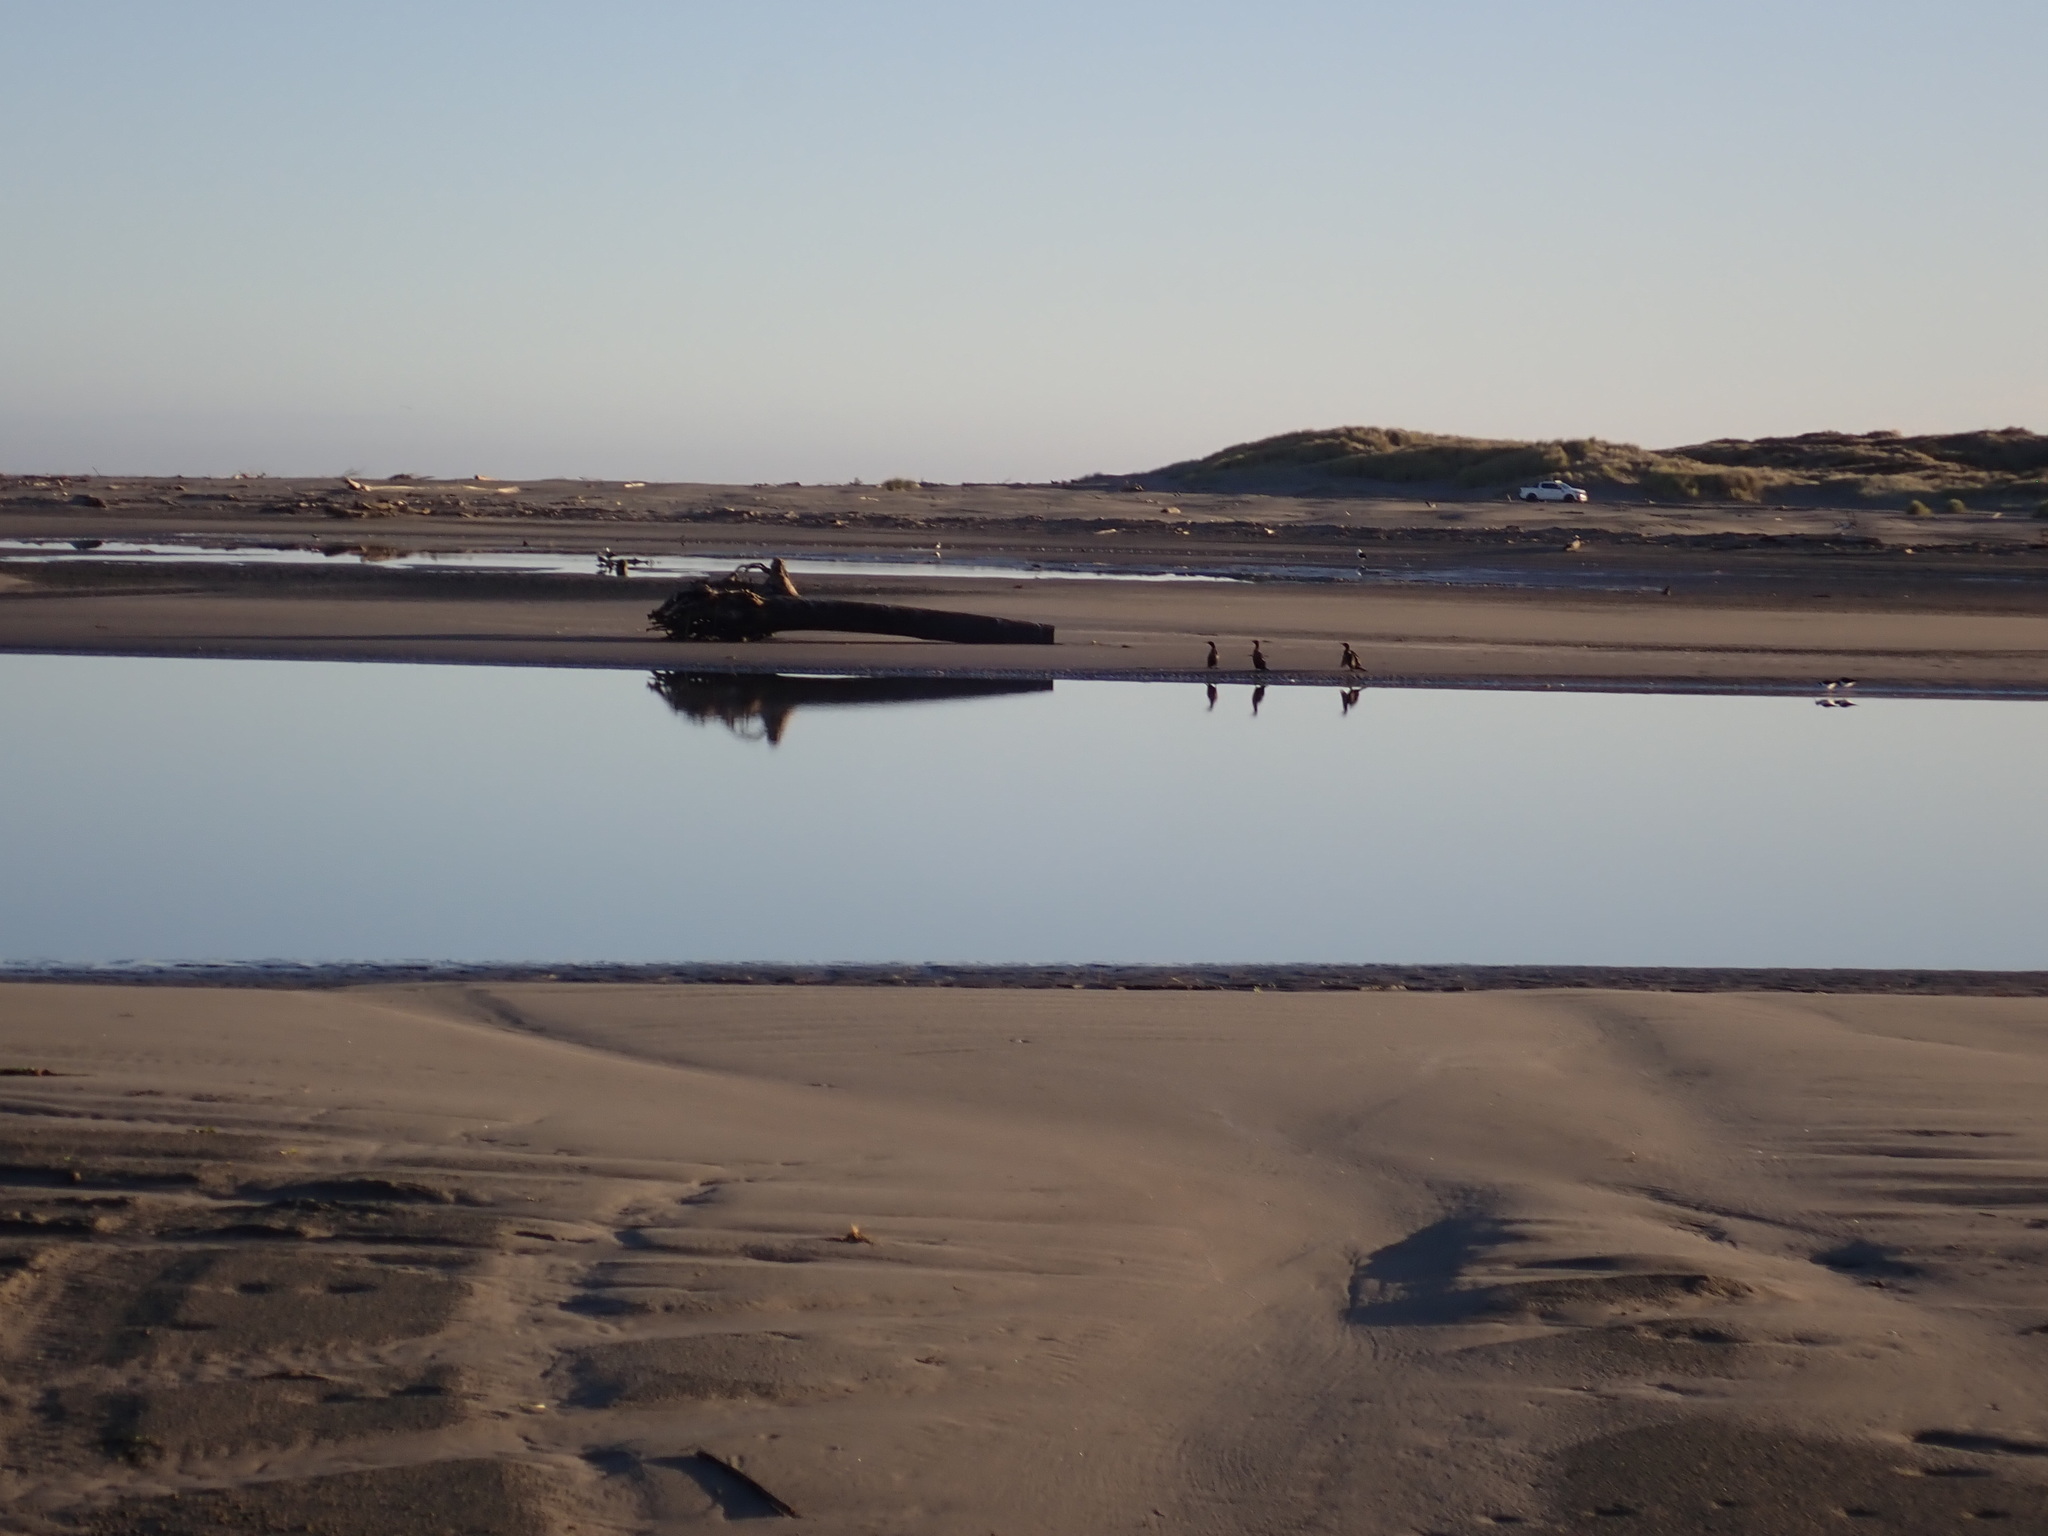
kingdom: Animalia
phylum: Chordata
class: Aves
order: Suliformes
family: Phalacrocoracidae
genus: Phalacrocorax
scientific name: Phalacrocorax carbo
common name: Great cormorant
